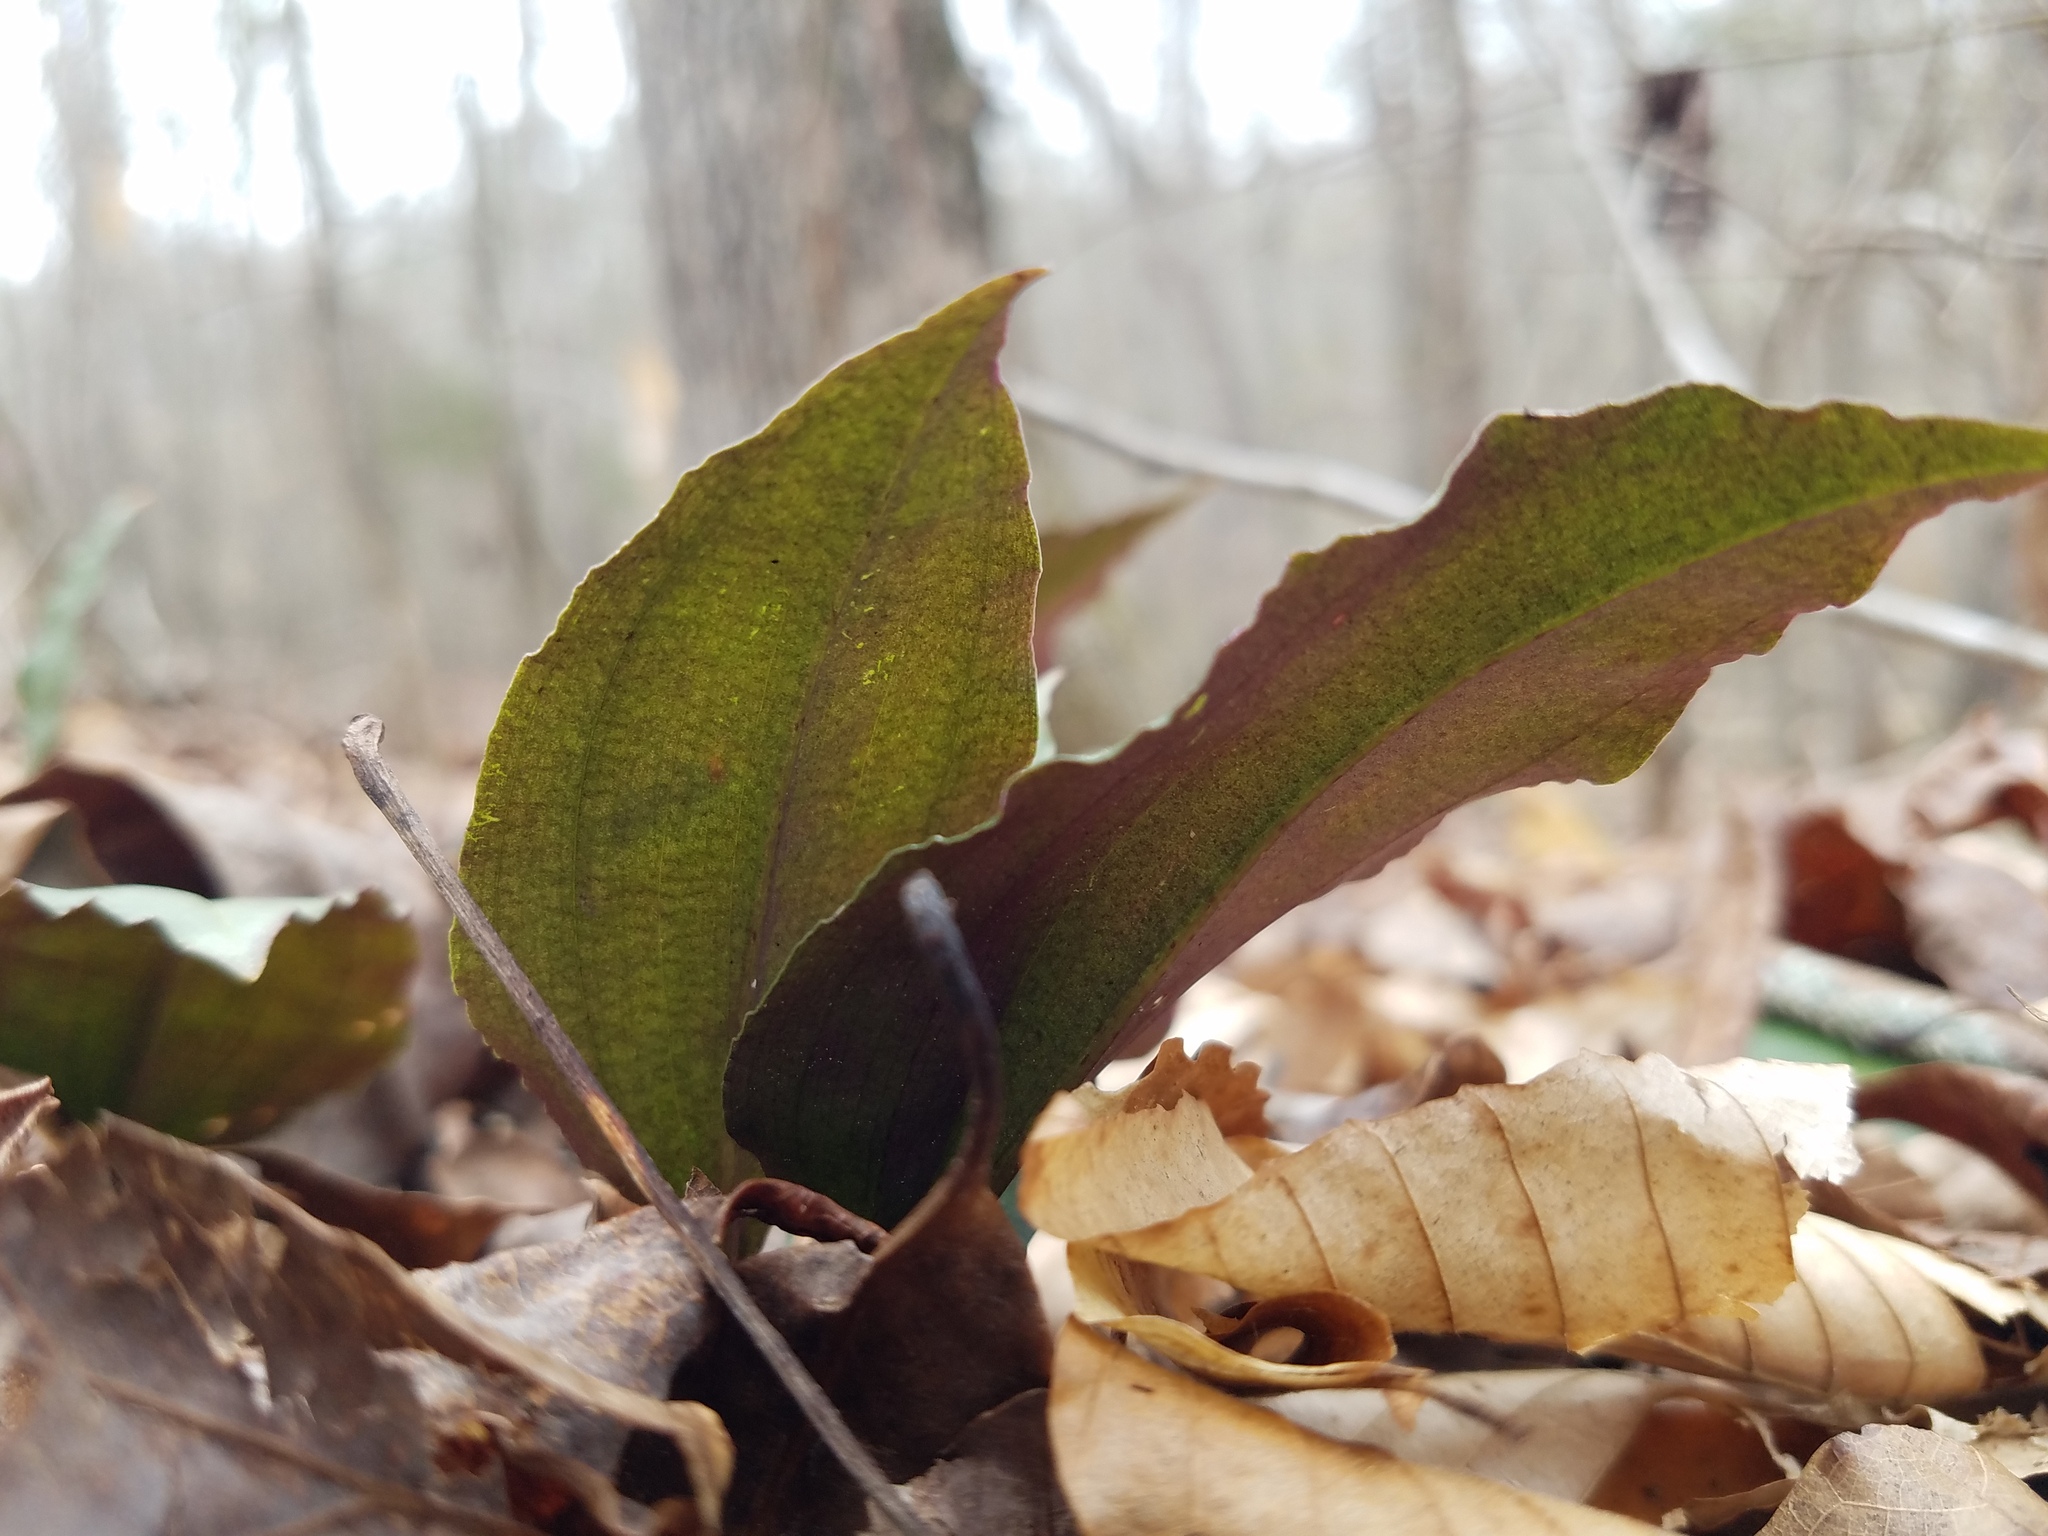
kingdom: Plantae
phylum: Tracheophyta
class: Liliopsida
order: Asparagales
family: Orchidaceae
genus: Tipularia
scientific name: Tipularia discolor
